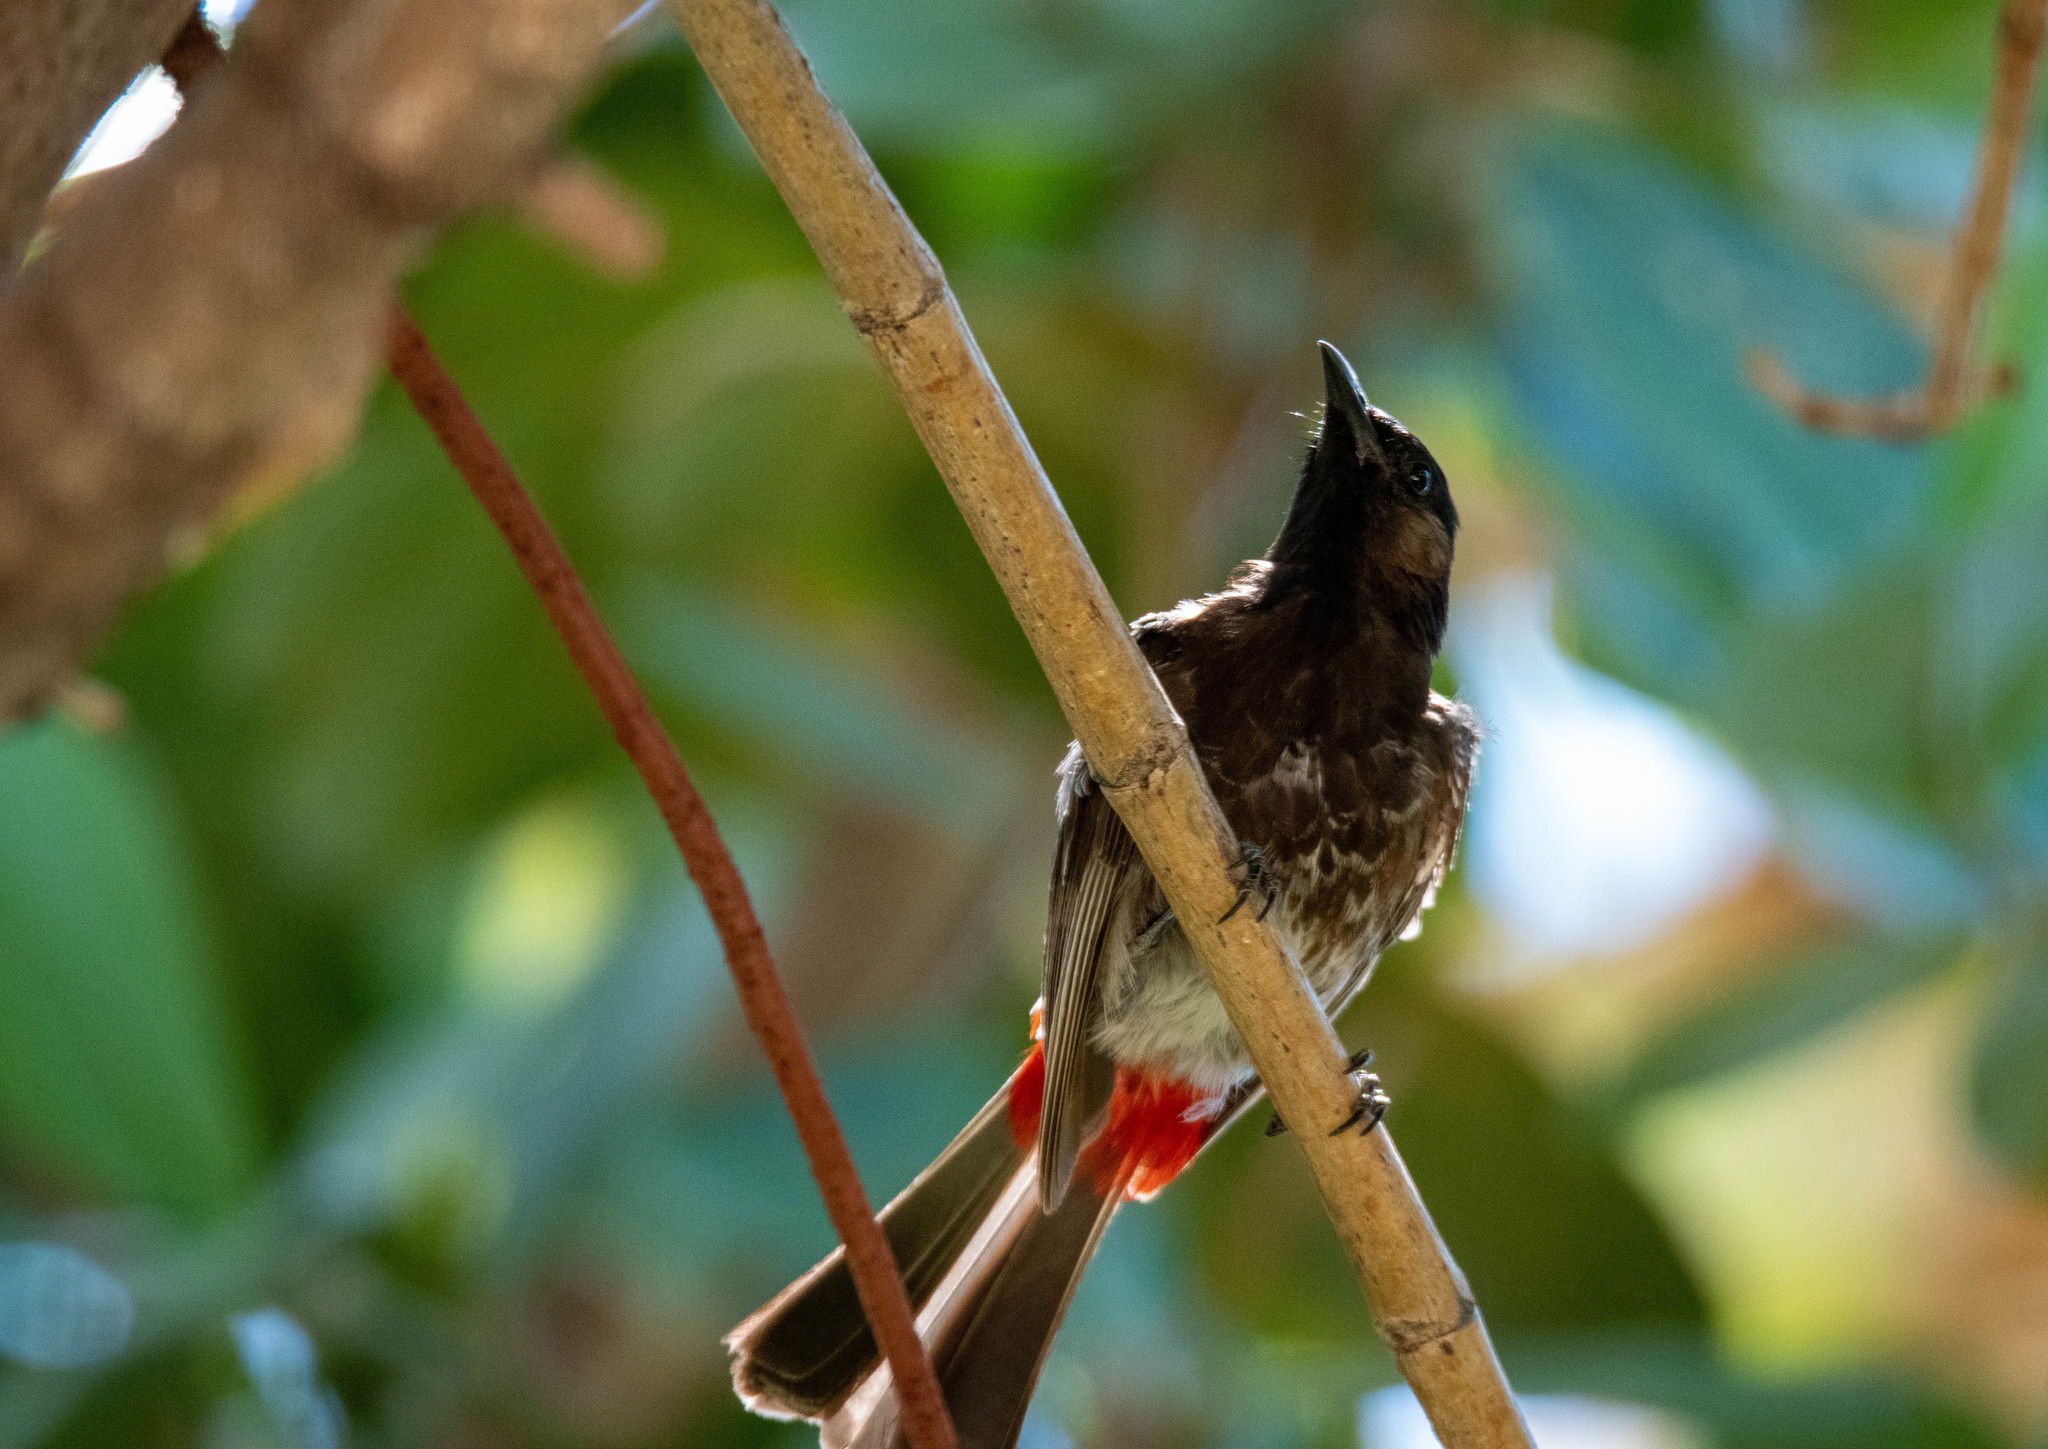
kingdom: Animalia
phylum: Chordata
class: Aves
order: Passeriformes
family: Pycnonotidae
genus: Pycnonotus
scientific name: Pycnonotus cafer
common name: Red-vented bulbul
